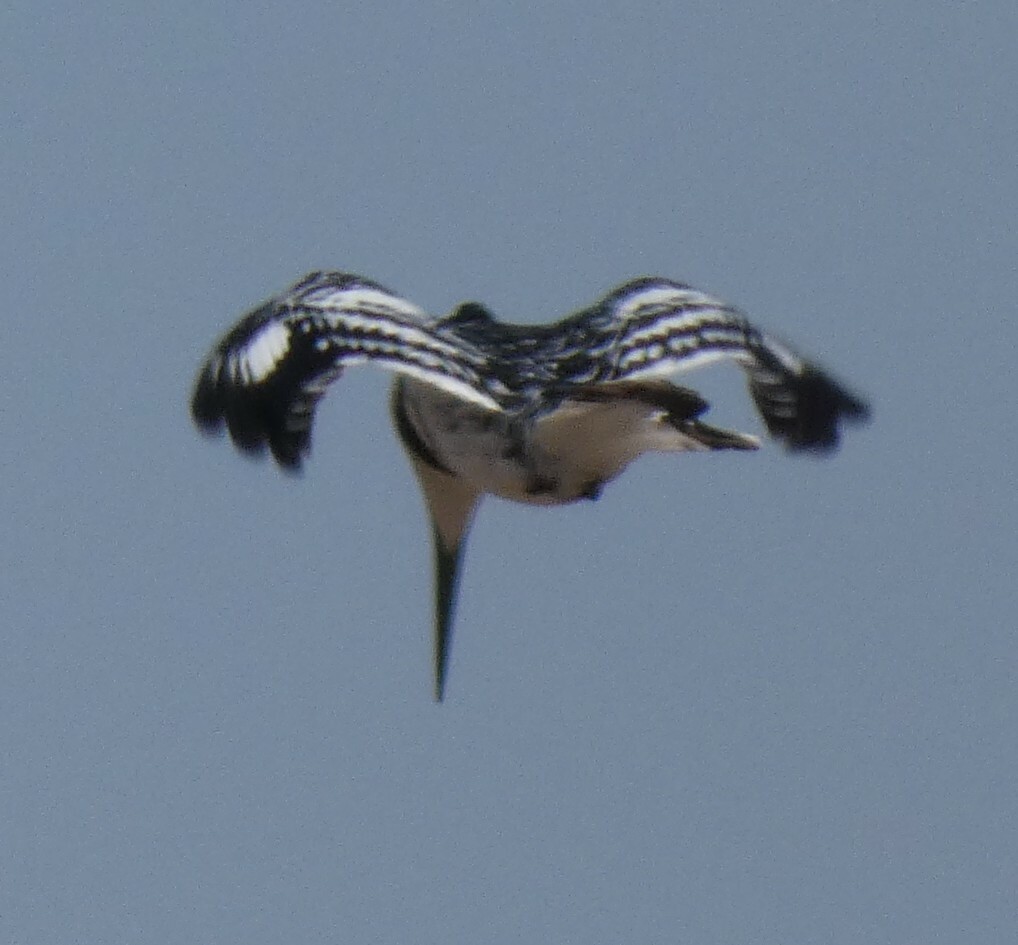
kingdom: Animalia
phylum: Chordata
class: Aves
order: Coraciiformes
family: Alcedinidae
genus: Ceryle
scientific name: Ceryle rudis
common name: Pied kingfisher
